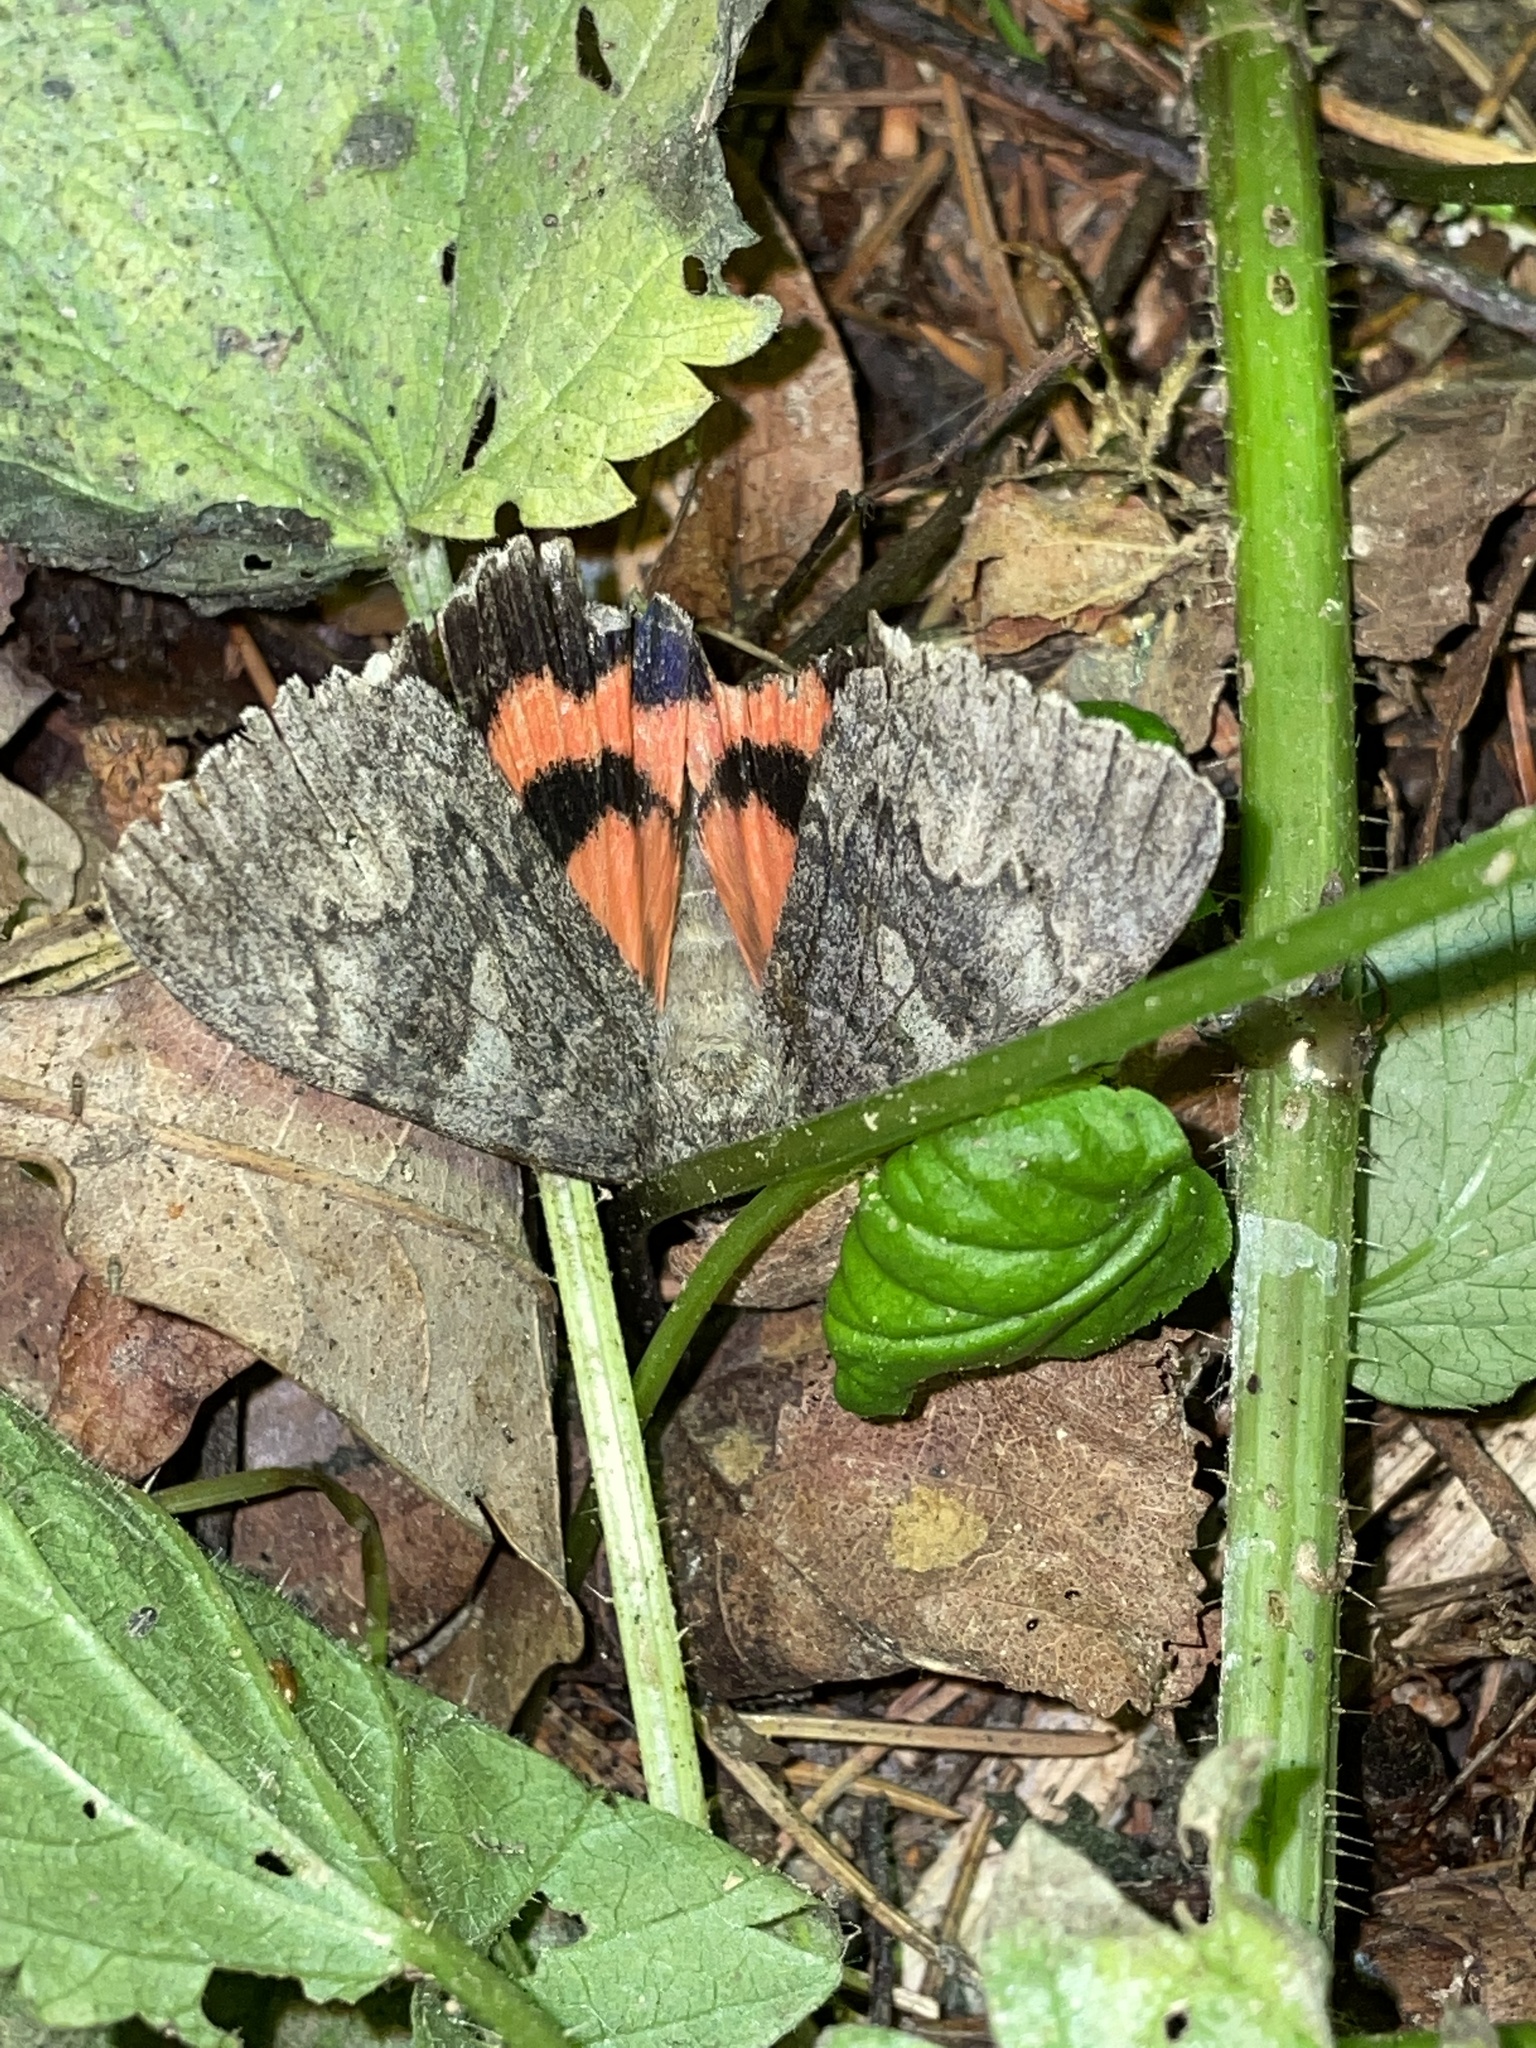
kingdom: Animalia
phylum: Arthropoda
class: Insecta
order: Lepidoptera
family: Erebidae
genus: Catocala
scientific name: Catocala nupta
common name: Red underwing
